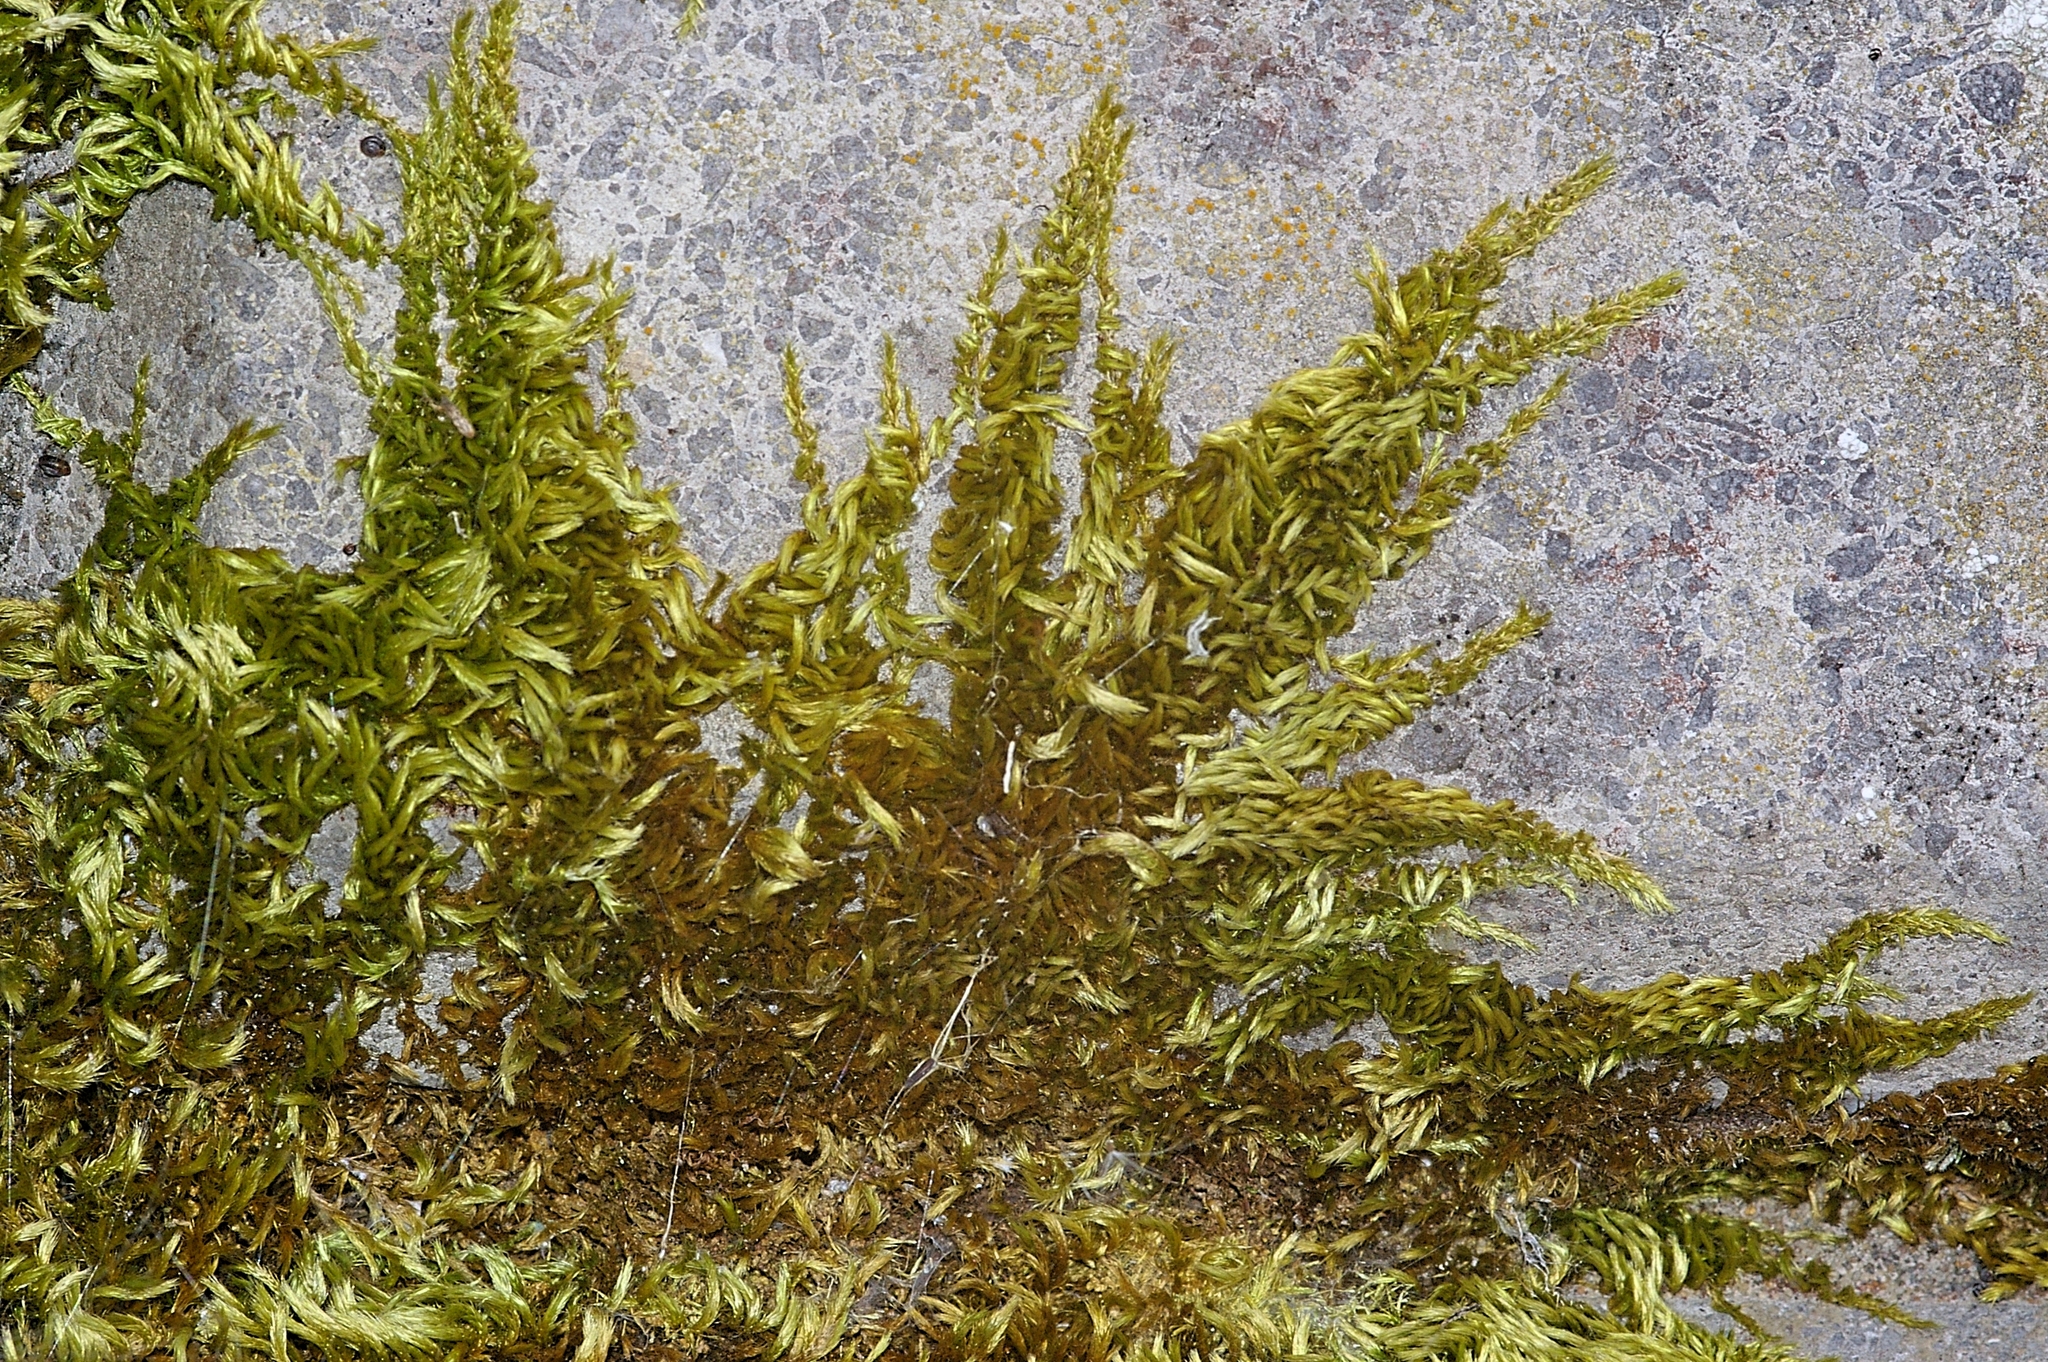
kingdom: Plantae
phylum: Bryophyta
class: Bryopsida
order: Hypnales
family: Brachytheciaceae
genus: Homalothecium
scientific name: Homalothecium sericeum
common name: Silky wall feather-moss
